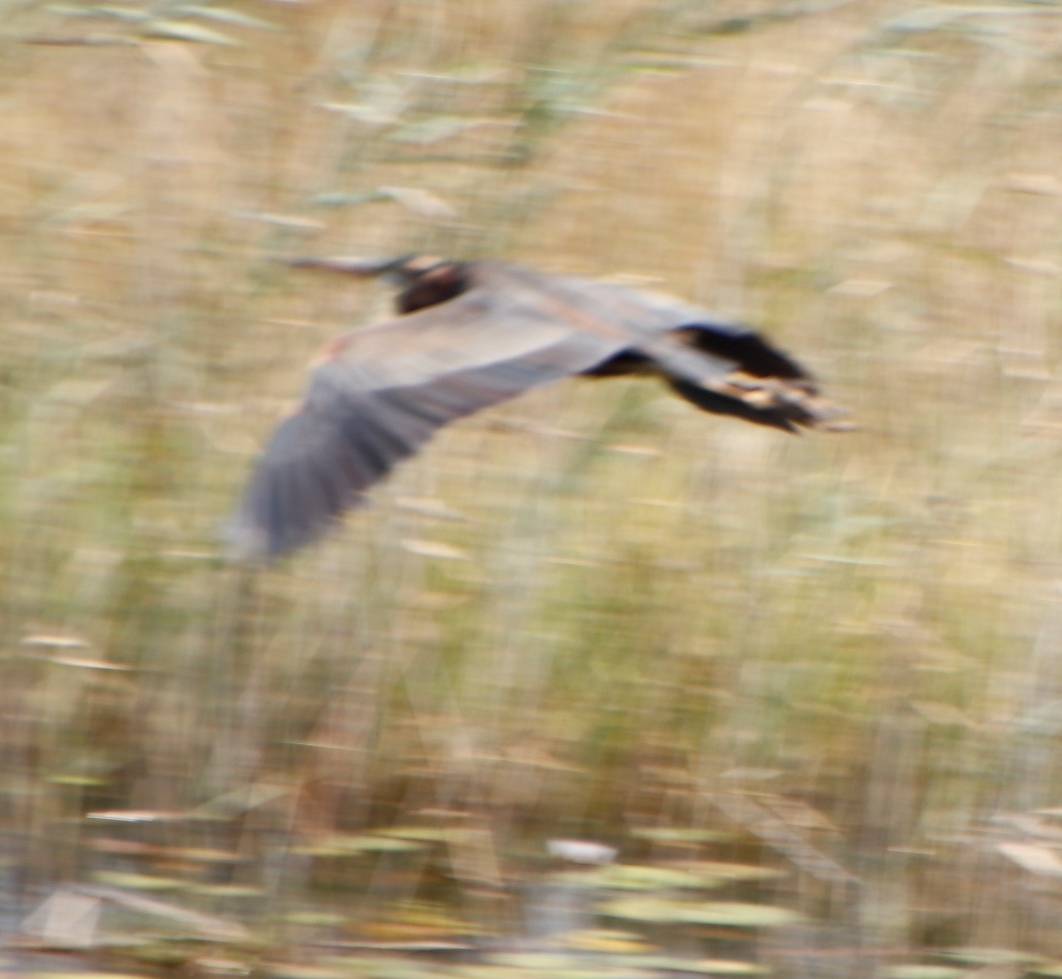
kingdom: Animalia
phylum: Chordata
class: Aves
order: Pelecaniformes
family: Ardeidae
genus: Ardea
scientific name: Ardea purpurea
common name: Purple heron
